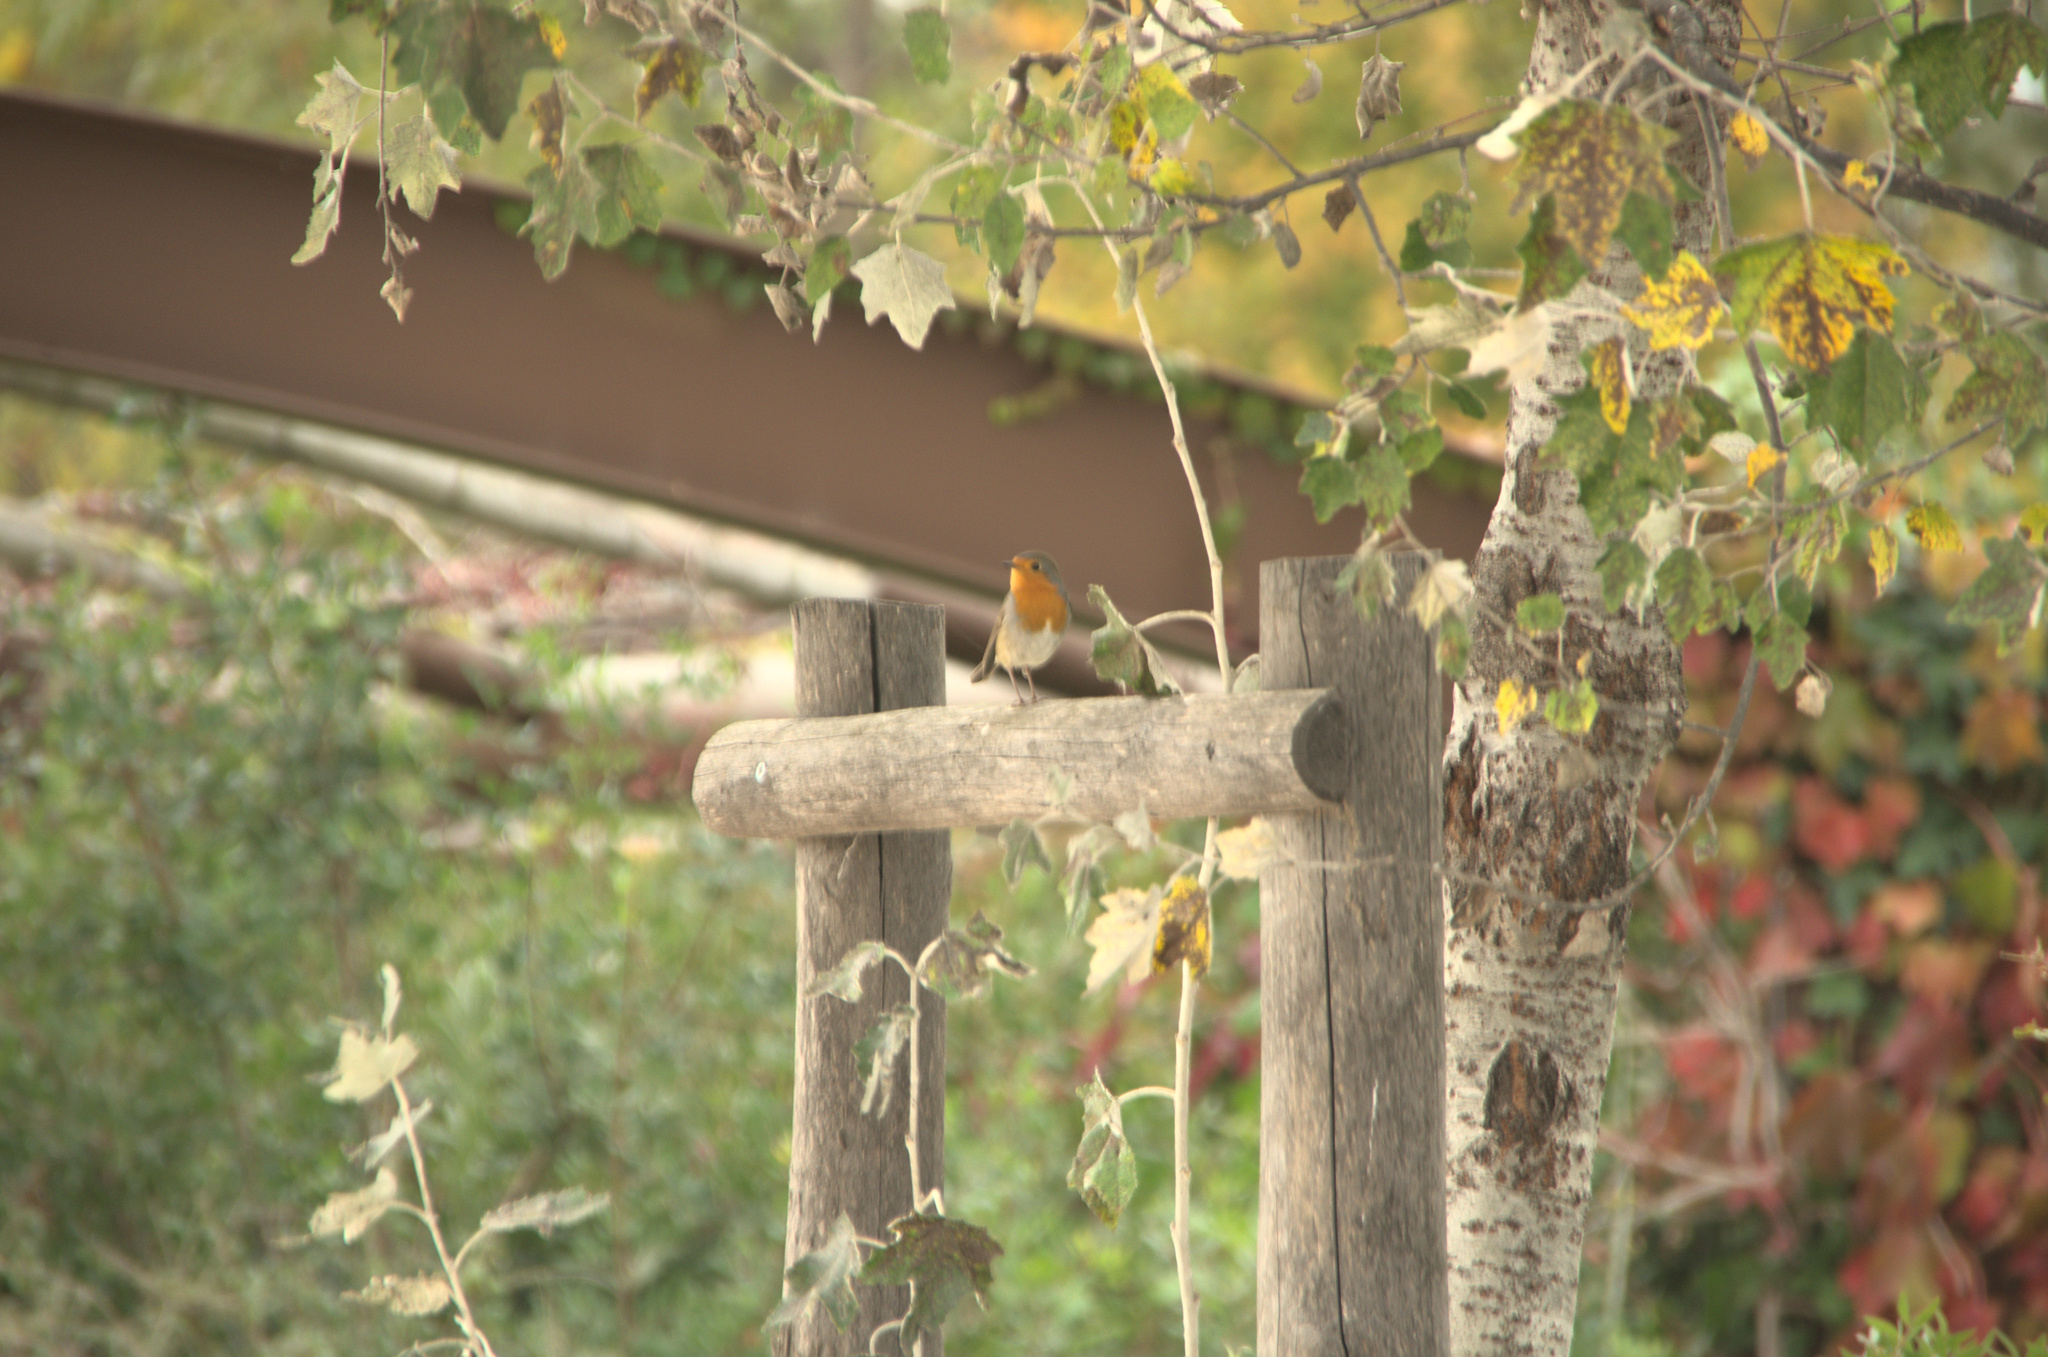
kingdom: Animalia
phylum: Chordata
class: Aves
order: Passeriformes
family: Muscicapidae
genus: Erithacus
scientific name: Erithacus rubecula
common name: European robin
